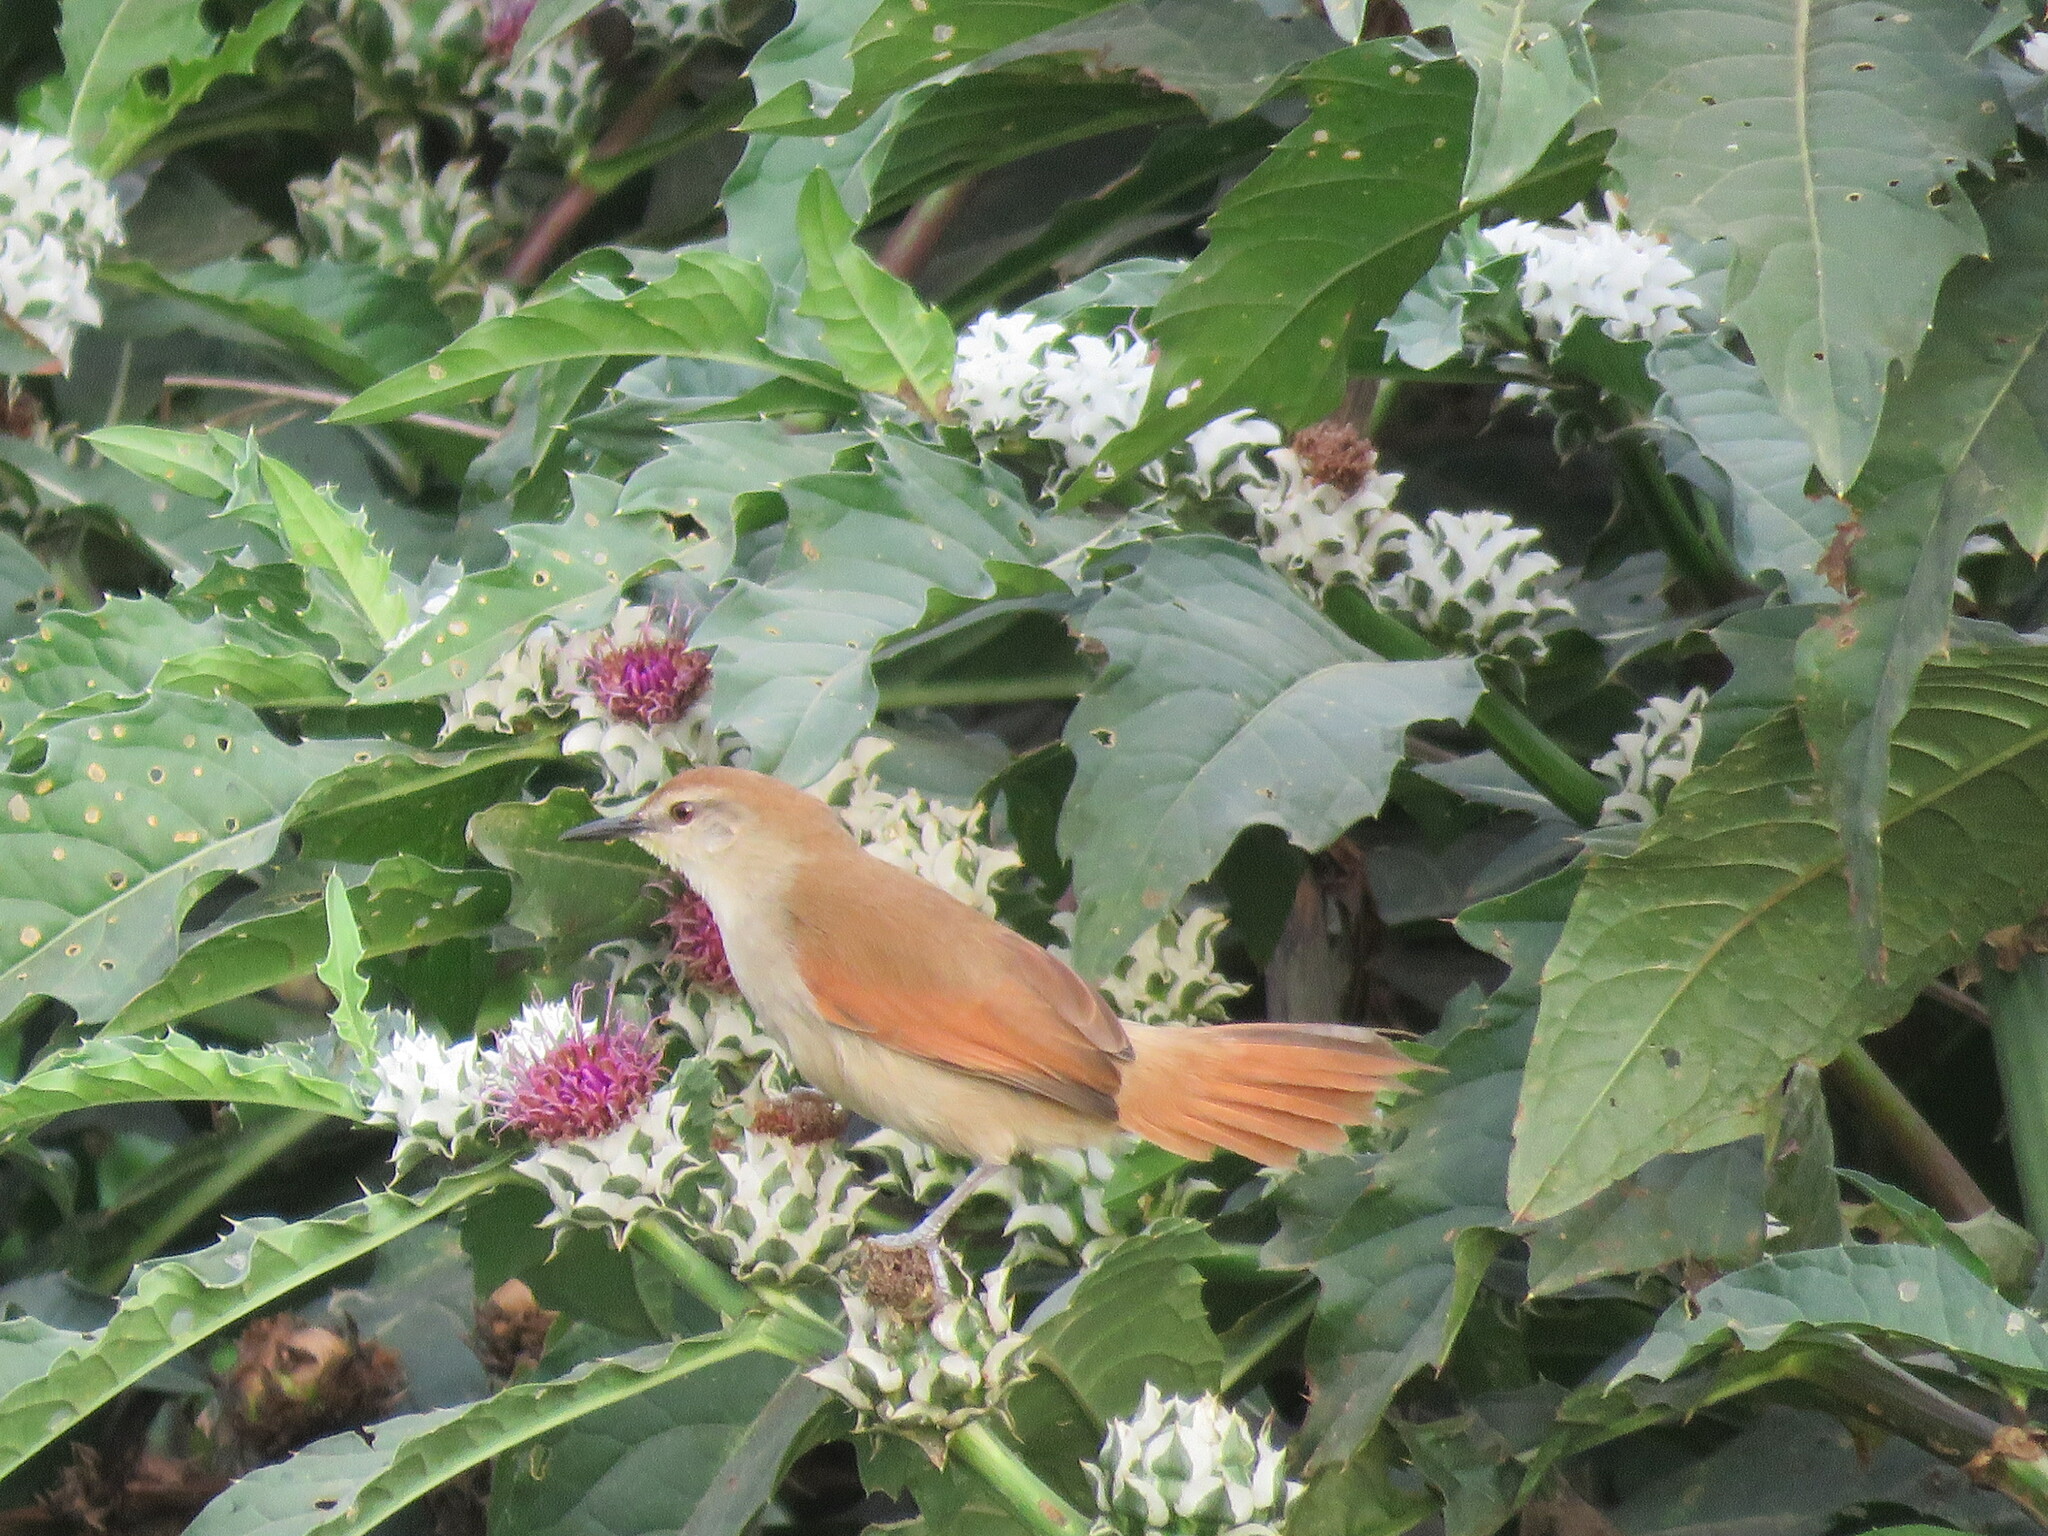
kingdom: Animalia
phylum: Chordata
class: Aves
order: Passeriformes
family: Furnariidae
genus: Certhiaxis
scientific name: Certhiaxis cinnamomeus
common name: Yellow-chinned spinetail
